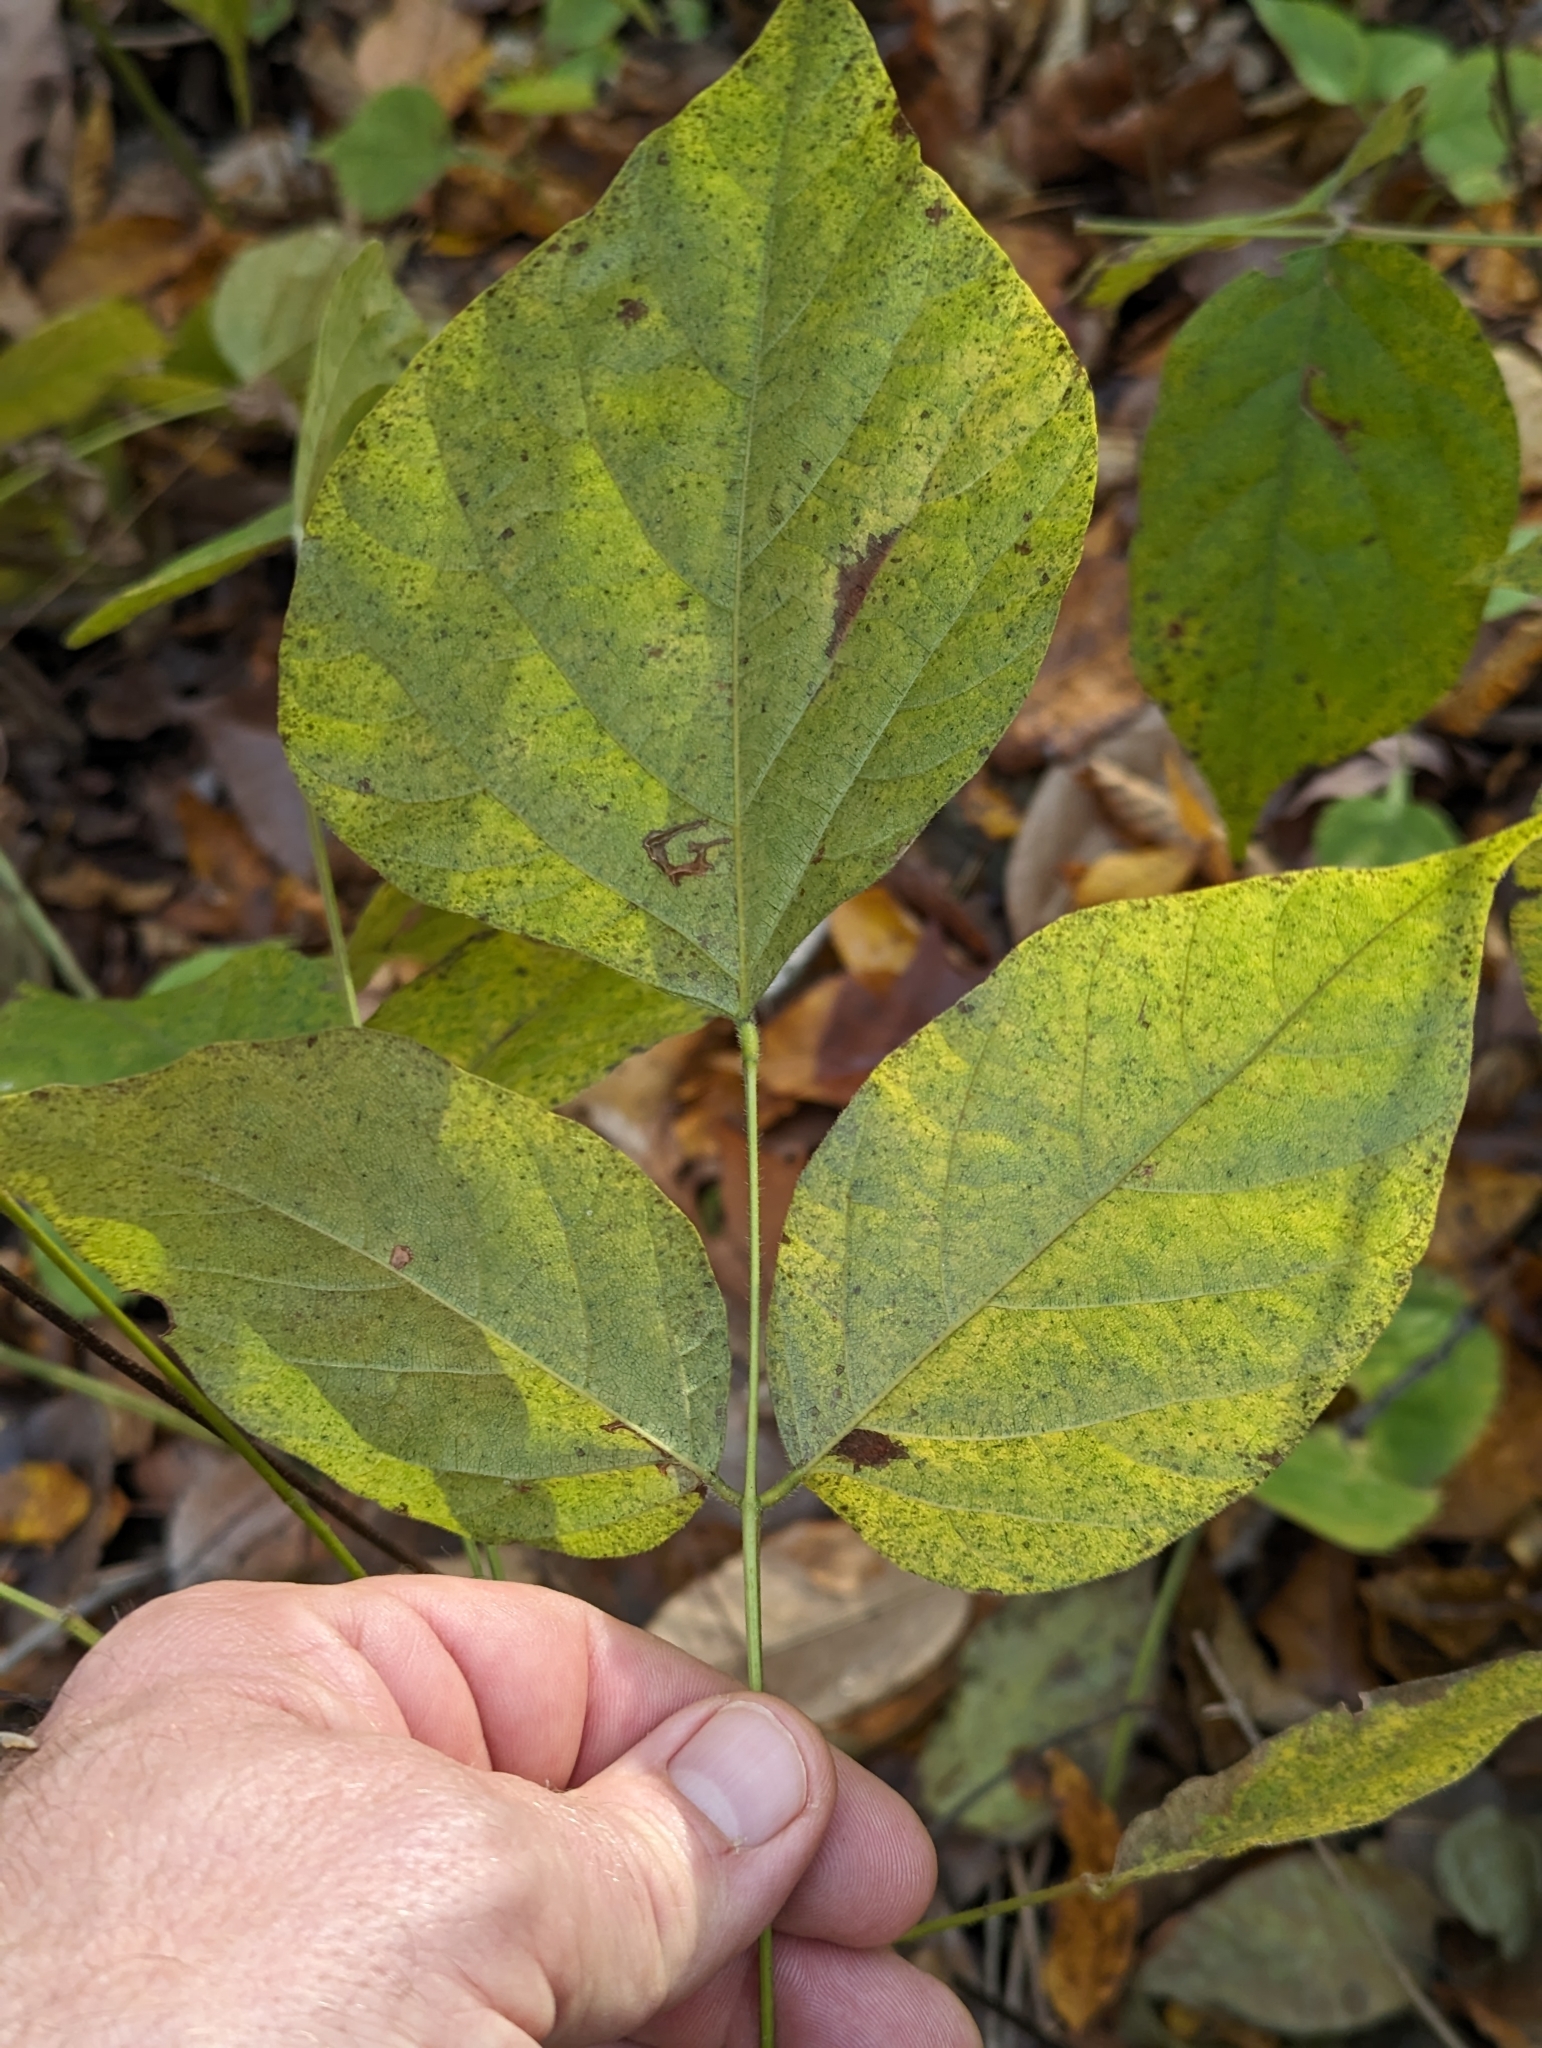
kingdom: Plantae
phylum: Tracheophyta
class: Magnoliopsida
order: Fabales
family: Fabaceae
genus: Hylodesmum
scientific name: Hylodesmum glutinosum
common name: Clustered-leaved tick-trefoil
